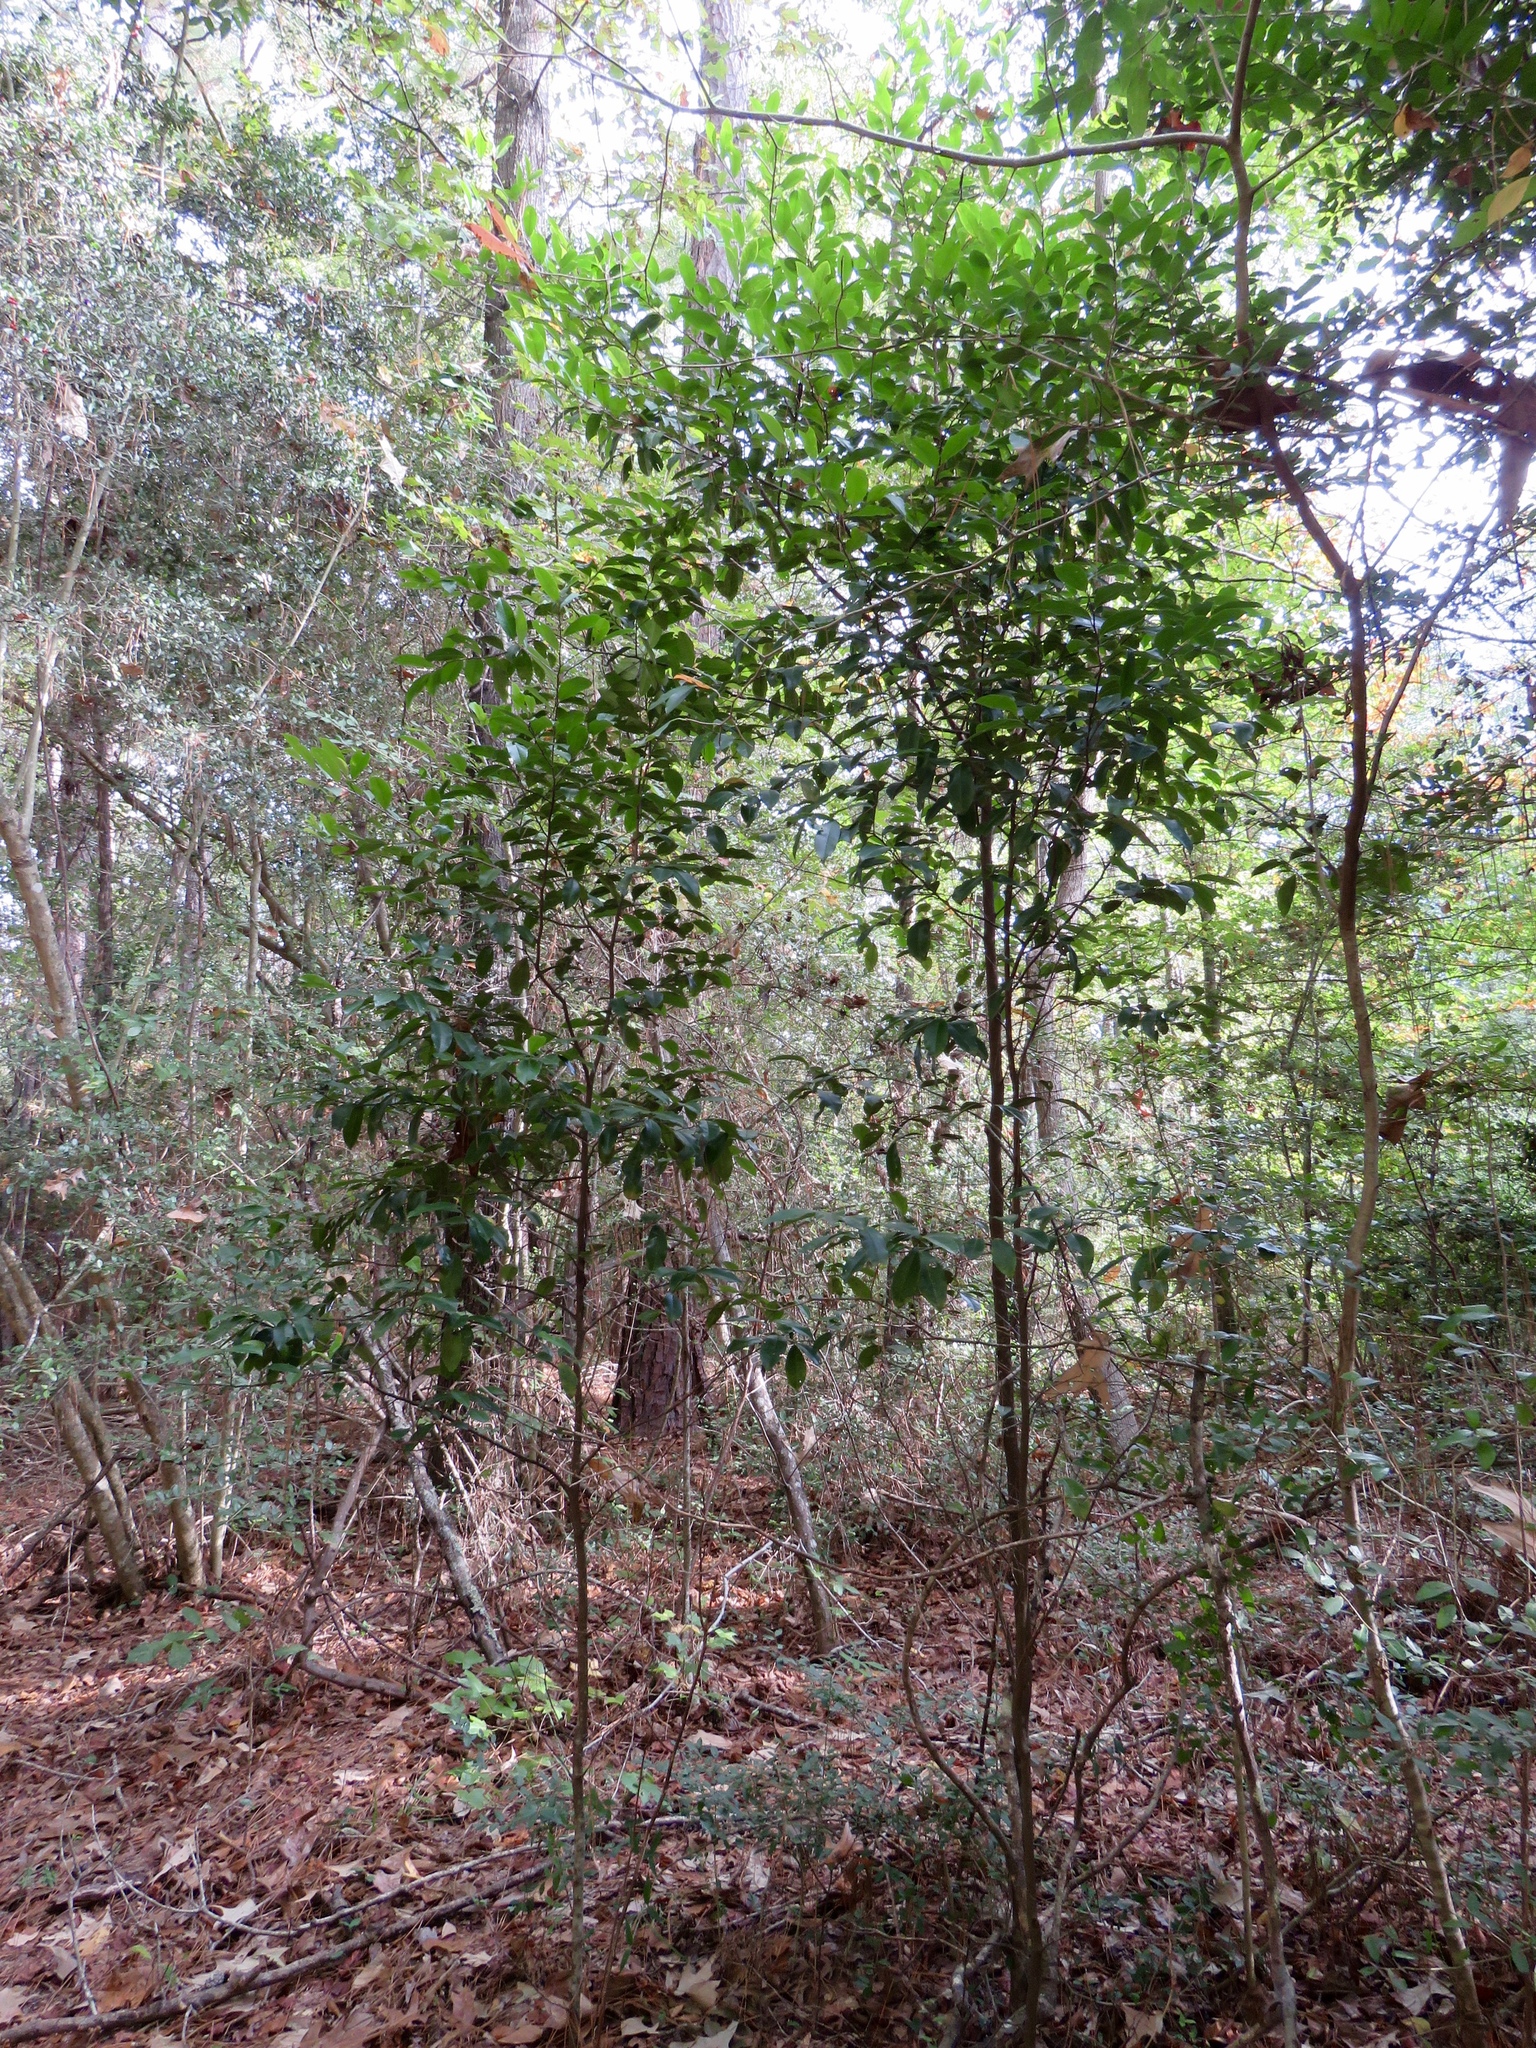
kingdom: Plantae
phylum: Tracheophyta
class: Magnoliopsida
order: Rosales
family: Rosaceae
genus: Prunus
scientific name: Prunus caroliniana
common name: Carolina laurel cherry
